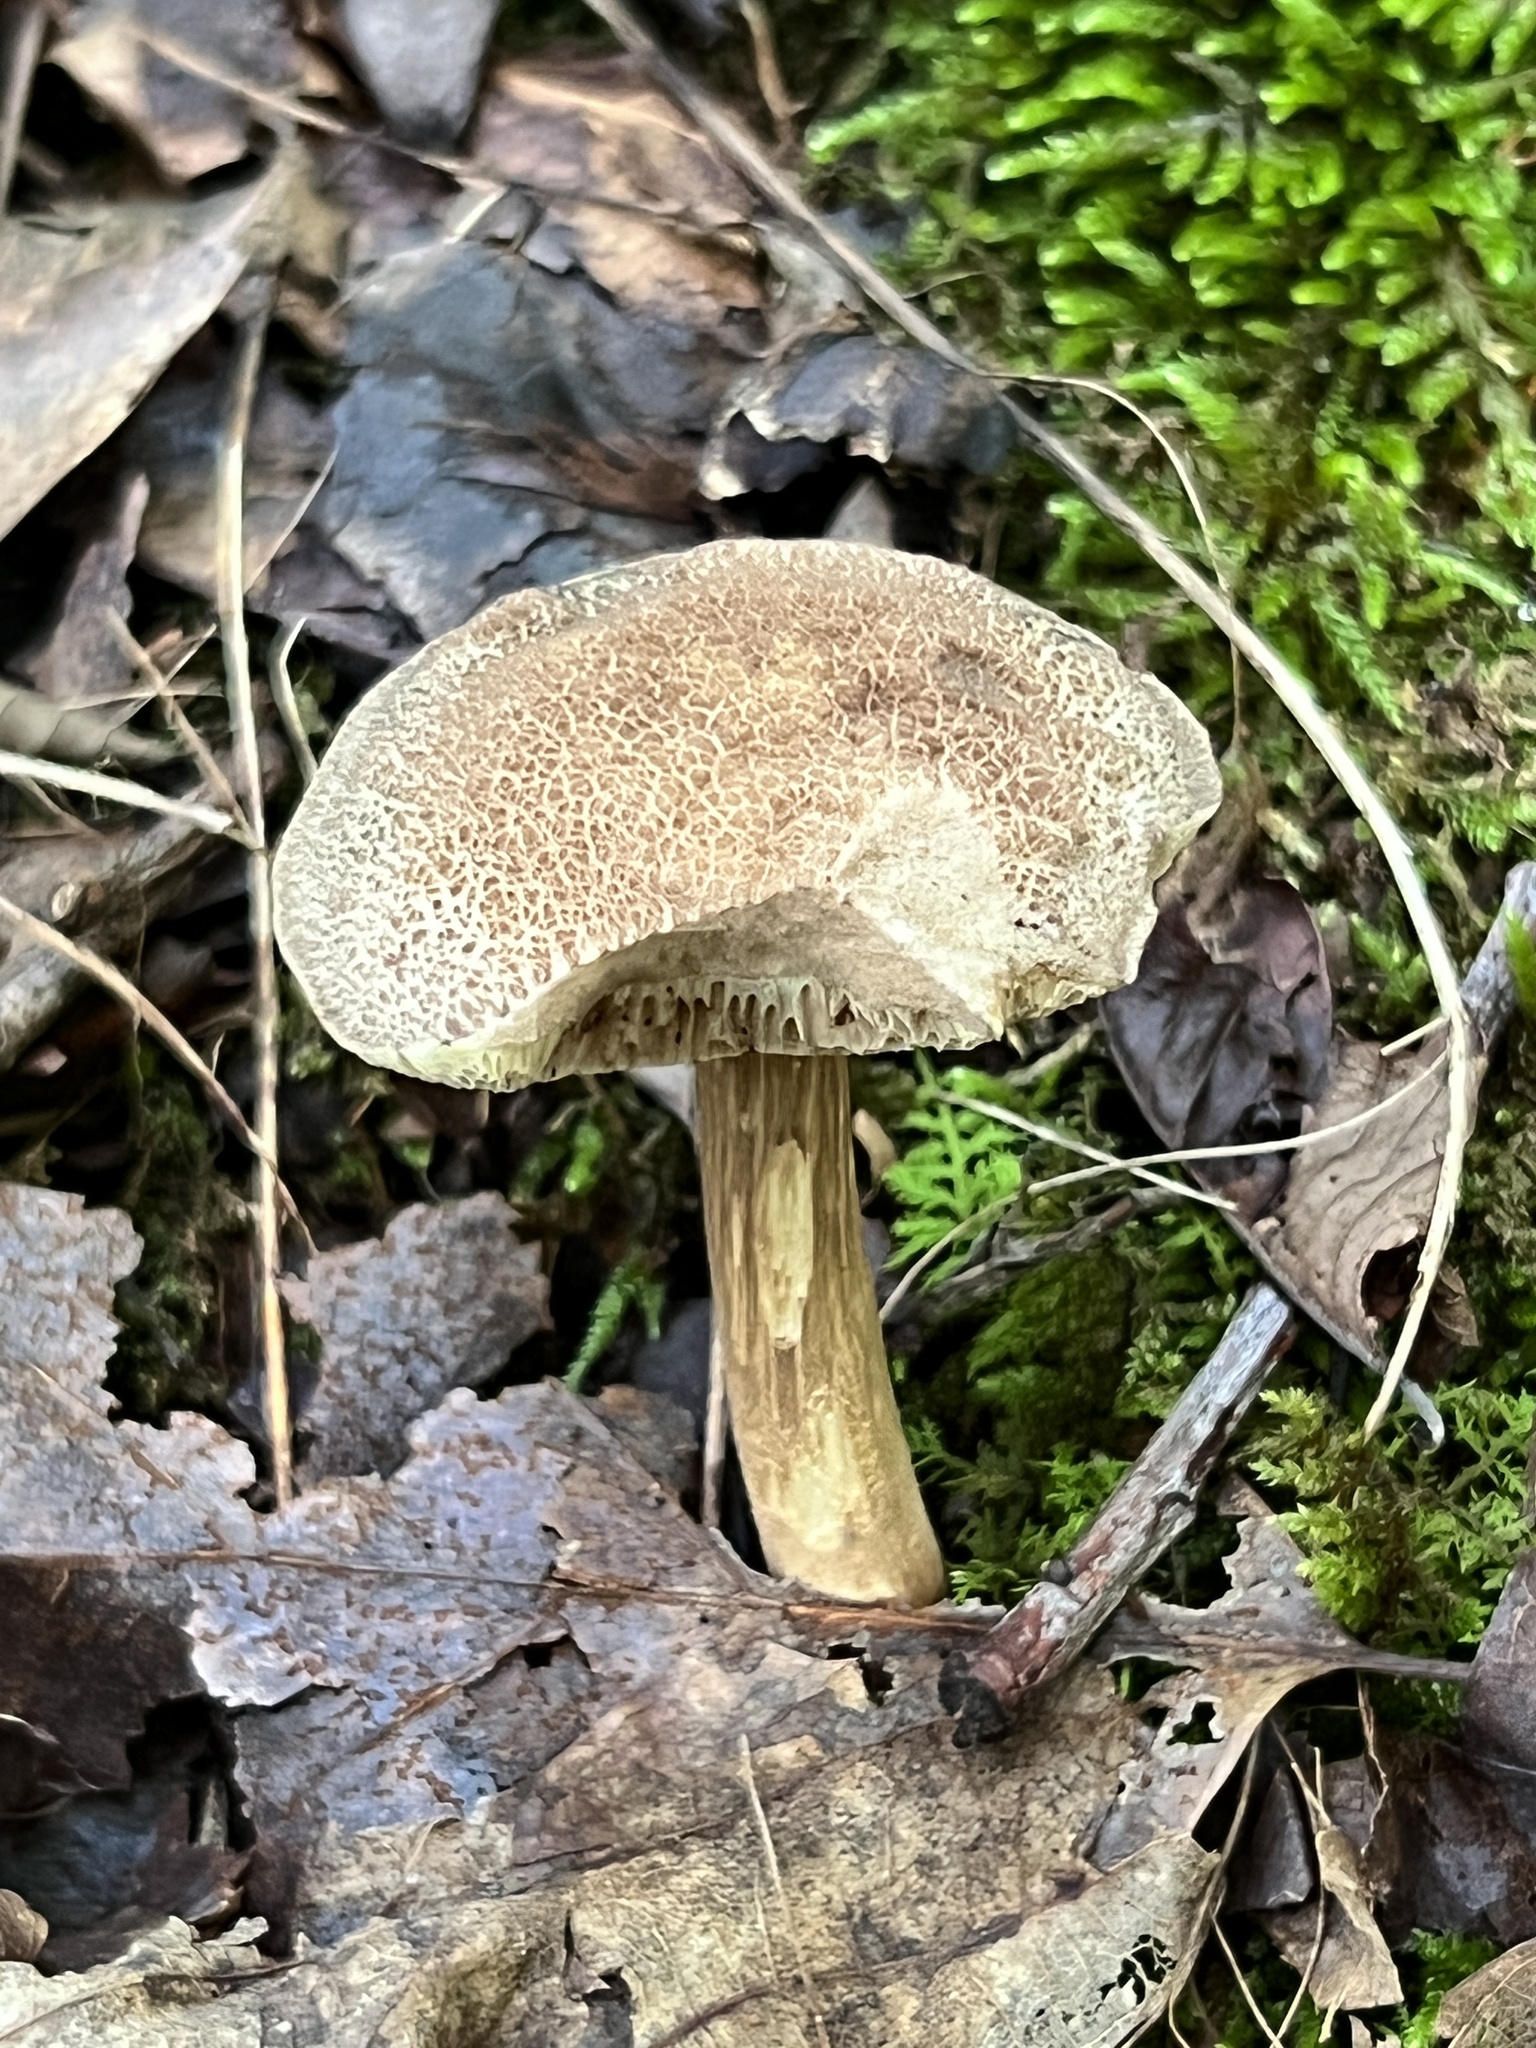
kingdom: Fungi
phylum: Basidiomycota
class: Agaricomycetes
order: Boletales
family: Boletaceae
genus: Porphyrellus
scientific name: Porphyrellus sordidus
